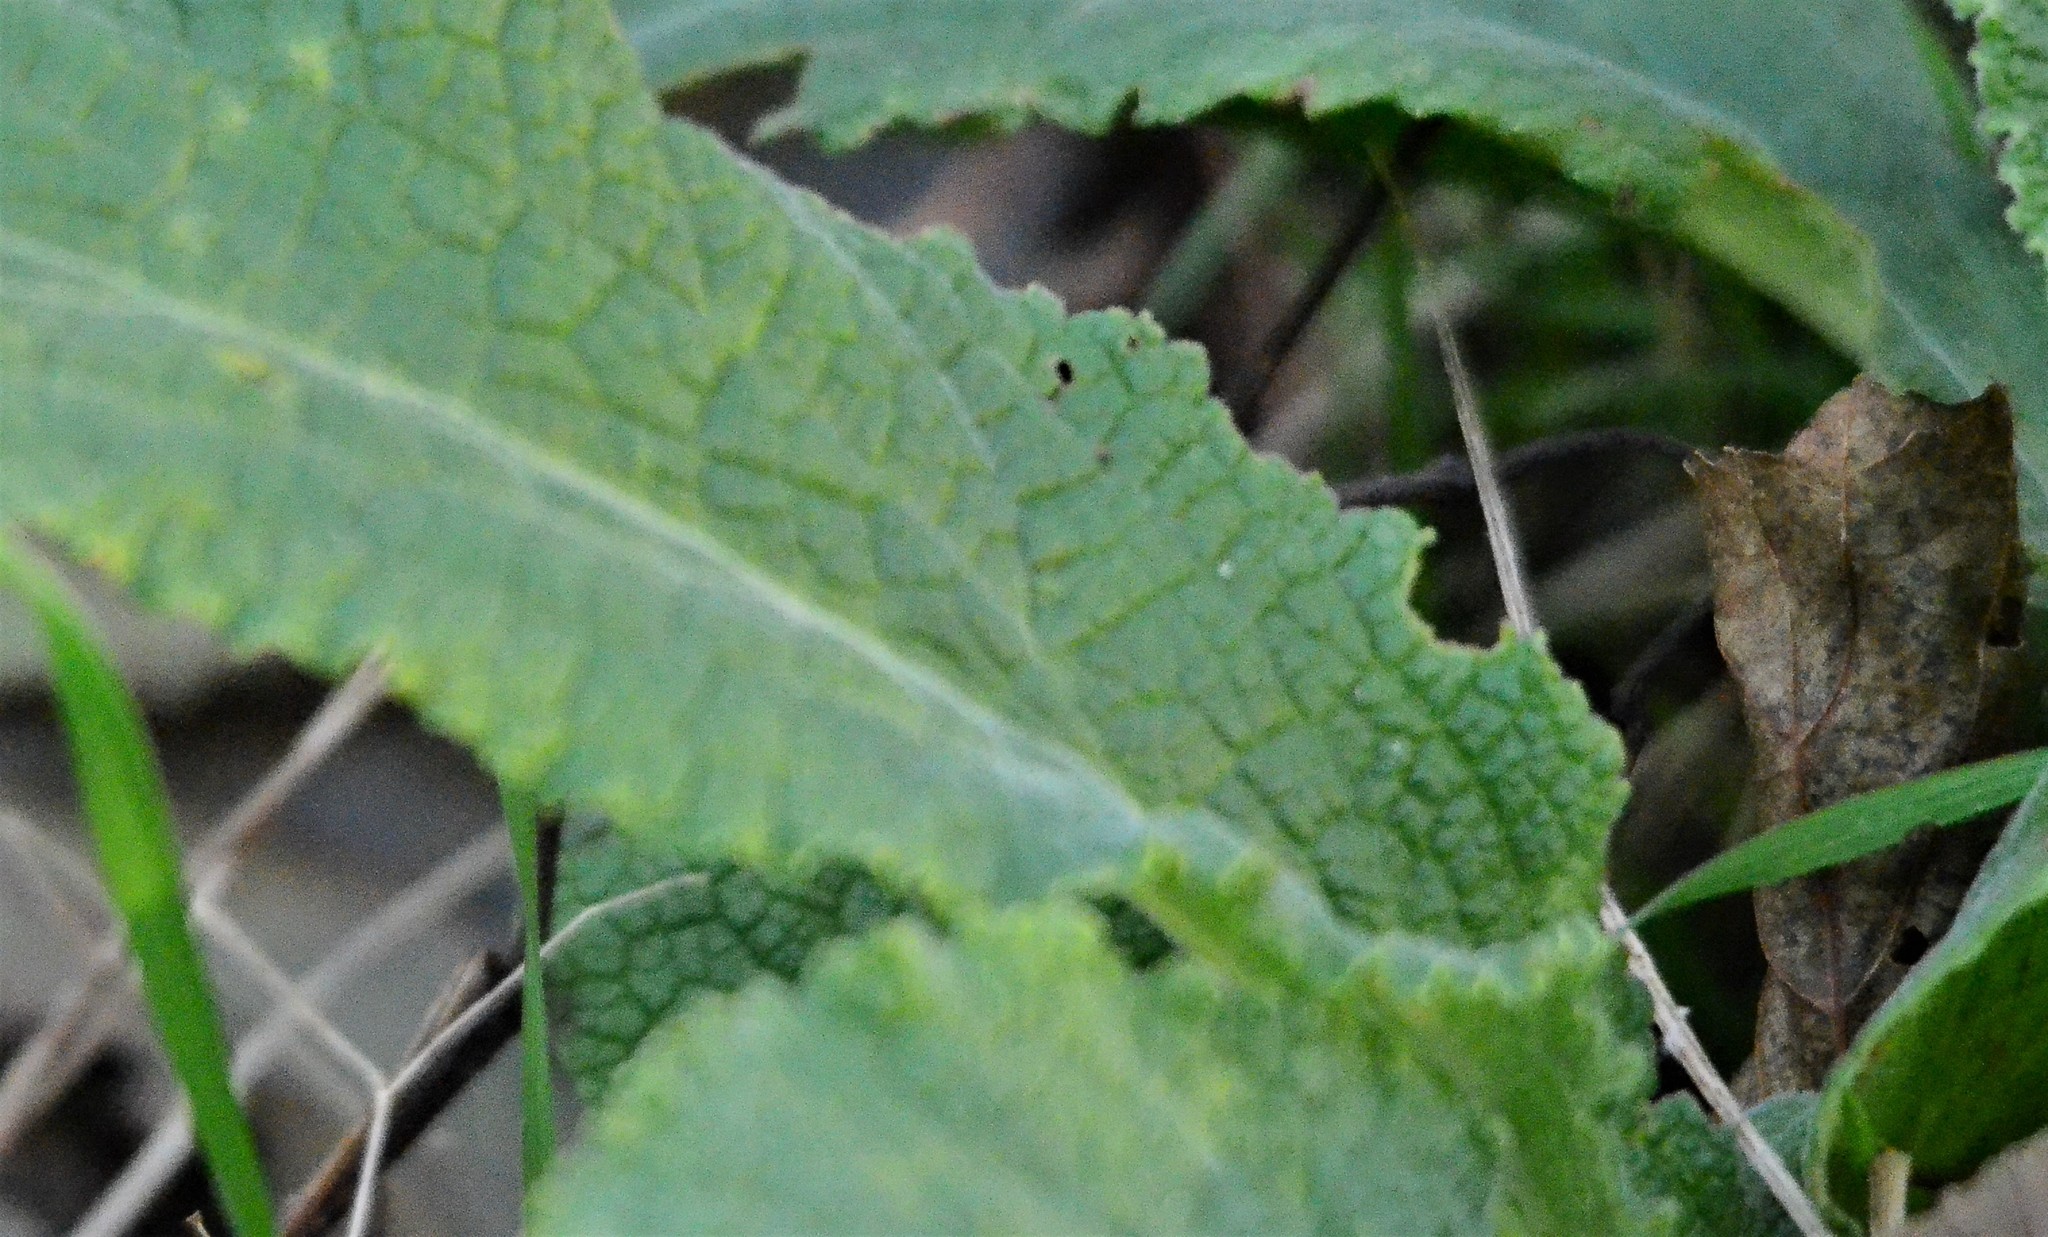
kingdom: Plantae
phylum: Tracheophyta
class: Magnoliopsida
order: Lamiales
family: Plantaginaceae
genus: Digitalis
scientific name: Digitalis purpurea
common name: Foxglove
